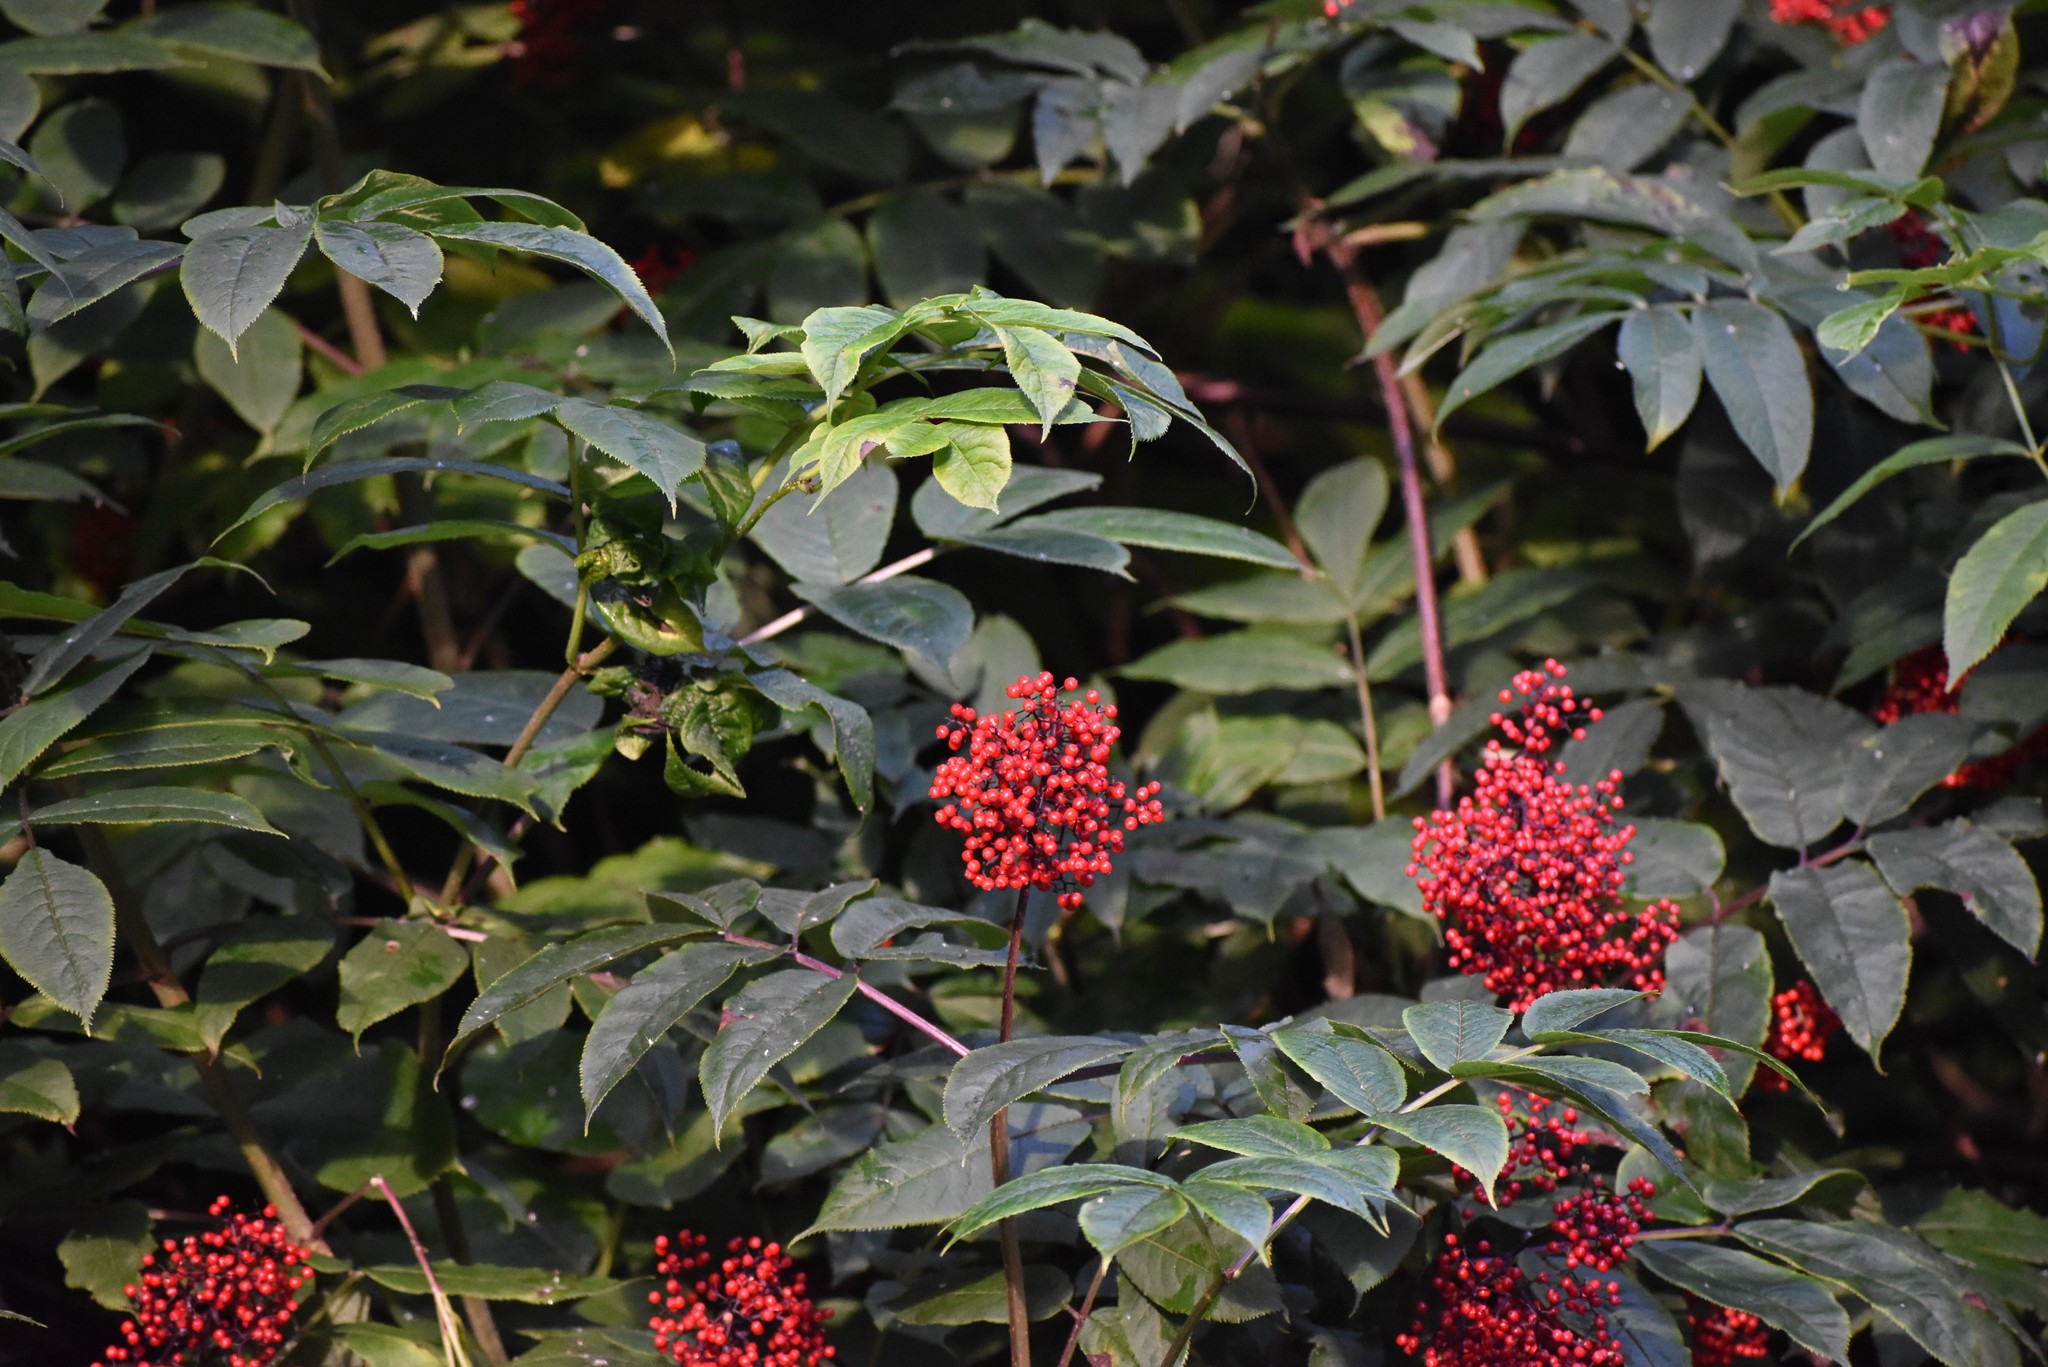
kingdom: Plantae
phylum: Tracheophyta
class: Magnoliopsida
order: Dipsacales
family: Viburnaceae
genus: Sambucus
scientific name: Sambucus racemosa
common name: Red-berried elder
